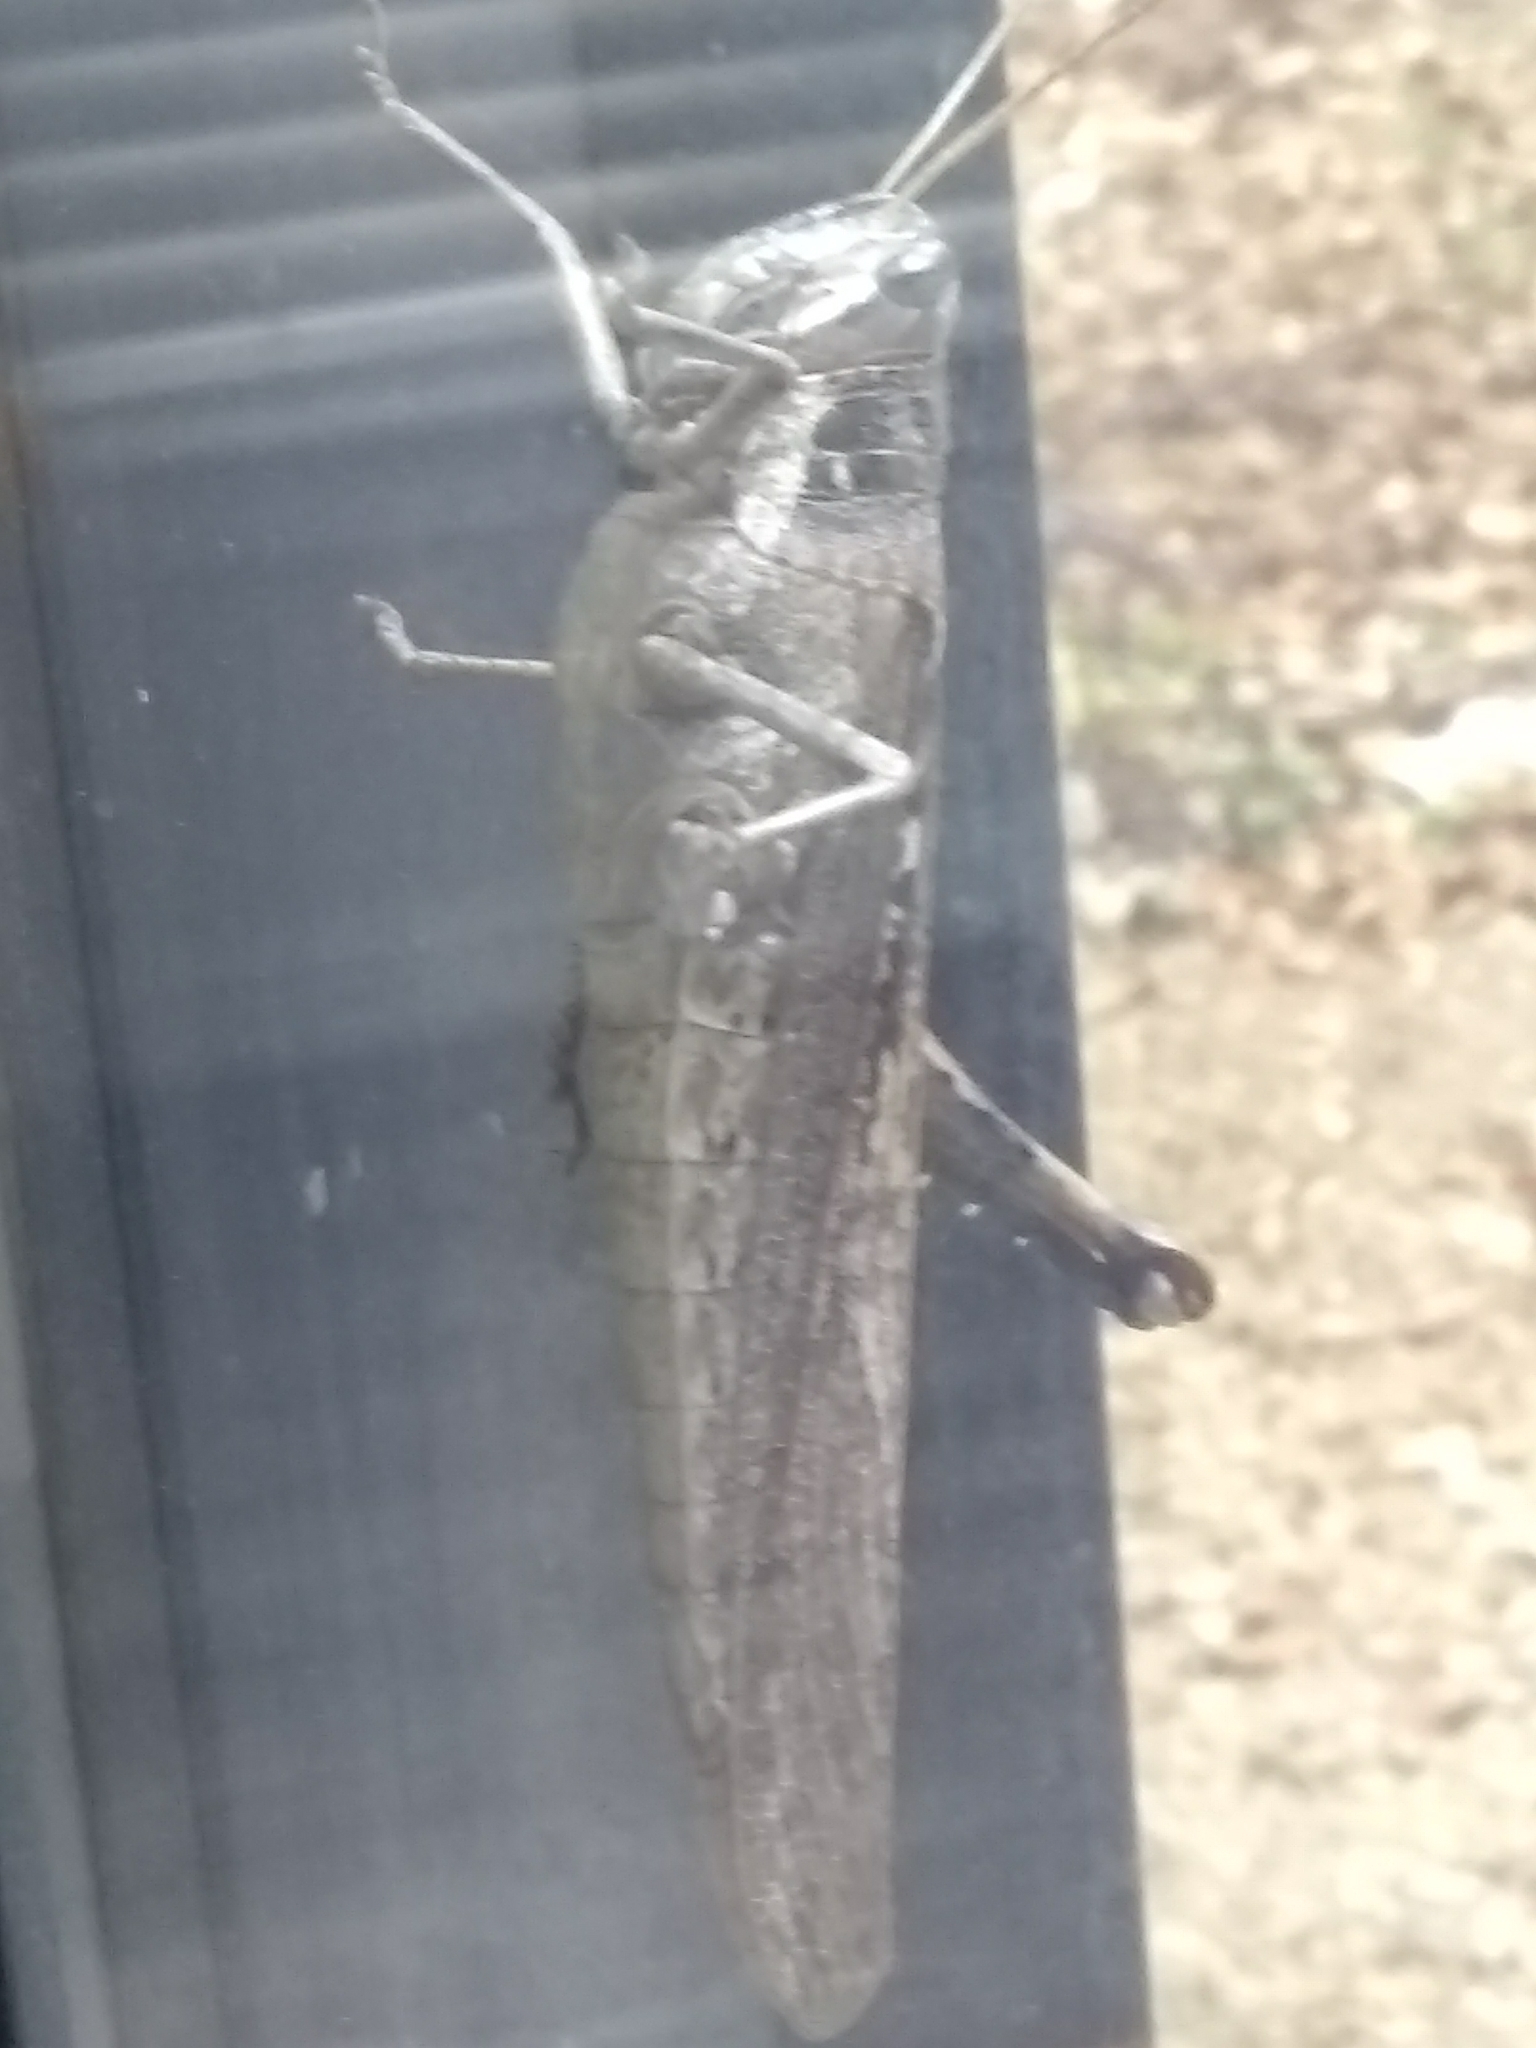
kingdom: Animalia
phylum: Arthropoda
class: Insecta
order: Orthoptera
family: Acrididae
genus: Schistocerca
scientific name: Schistocerca nitens
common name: Vagrant grasshopper
